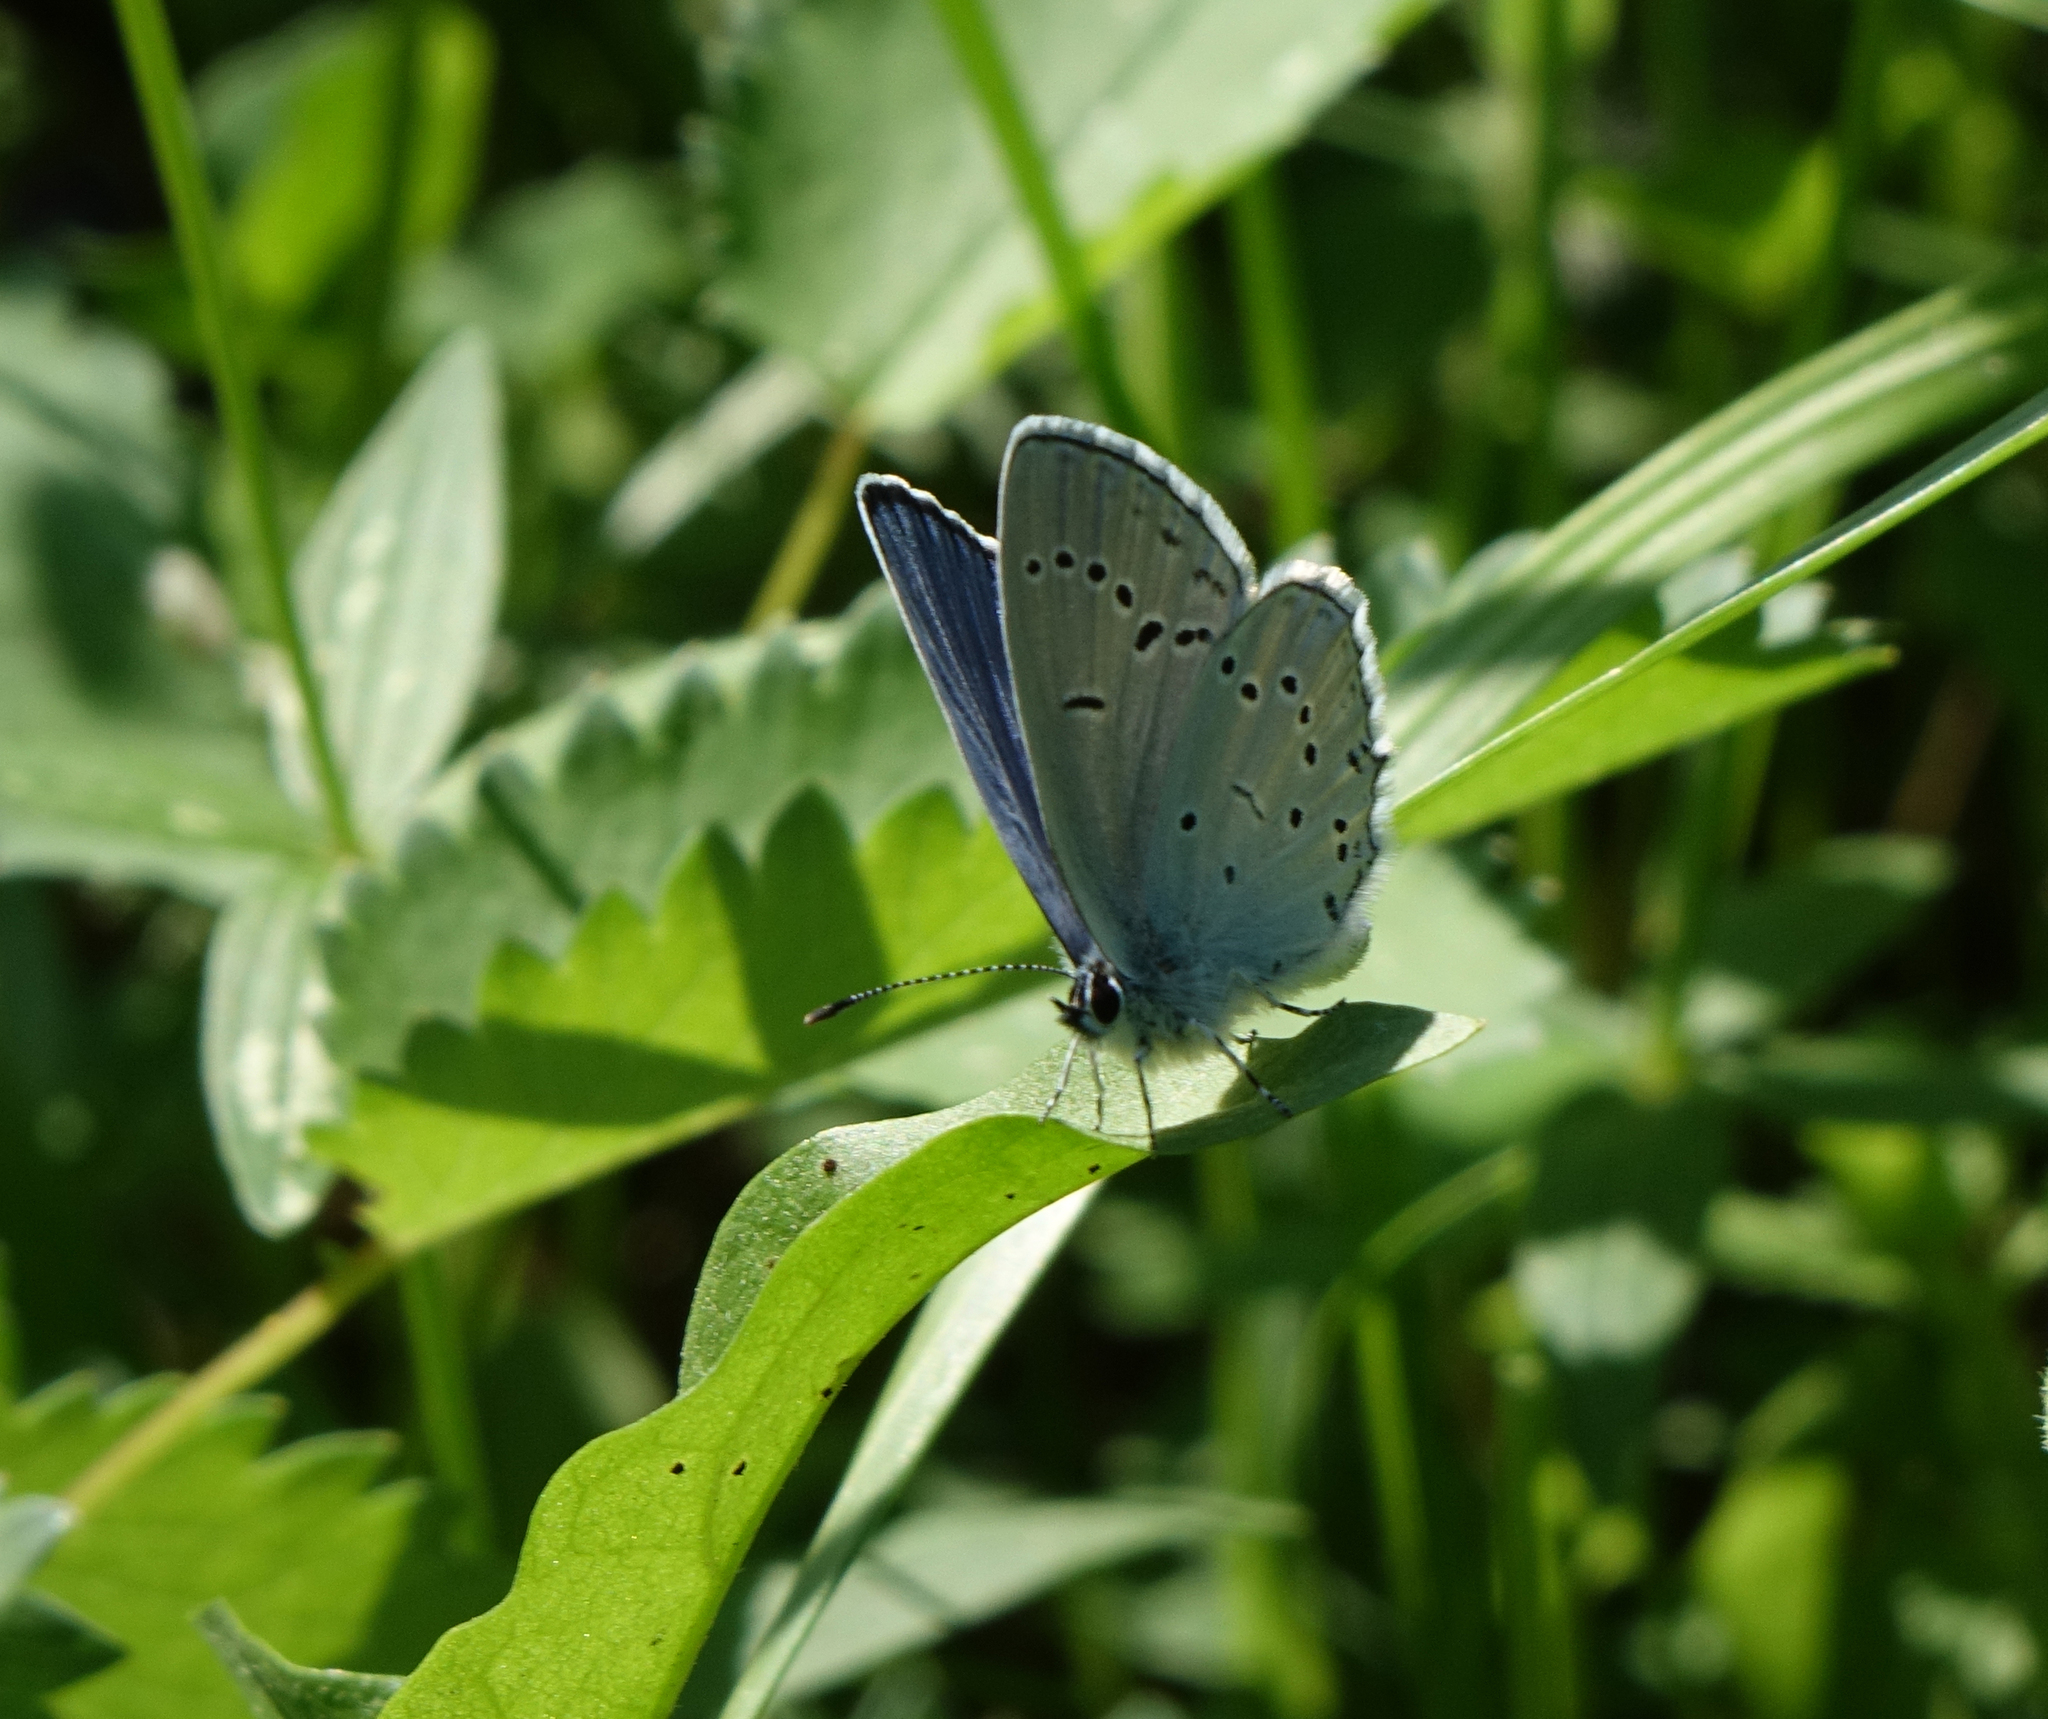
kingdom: Animalia
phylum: Arthropoda
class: Insecta
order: Lepidoptera
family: Lycaenidae
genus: Elkalyce
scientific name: Elkalyce alcetas
